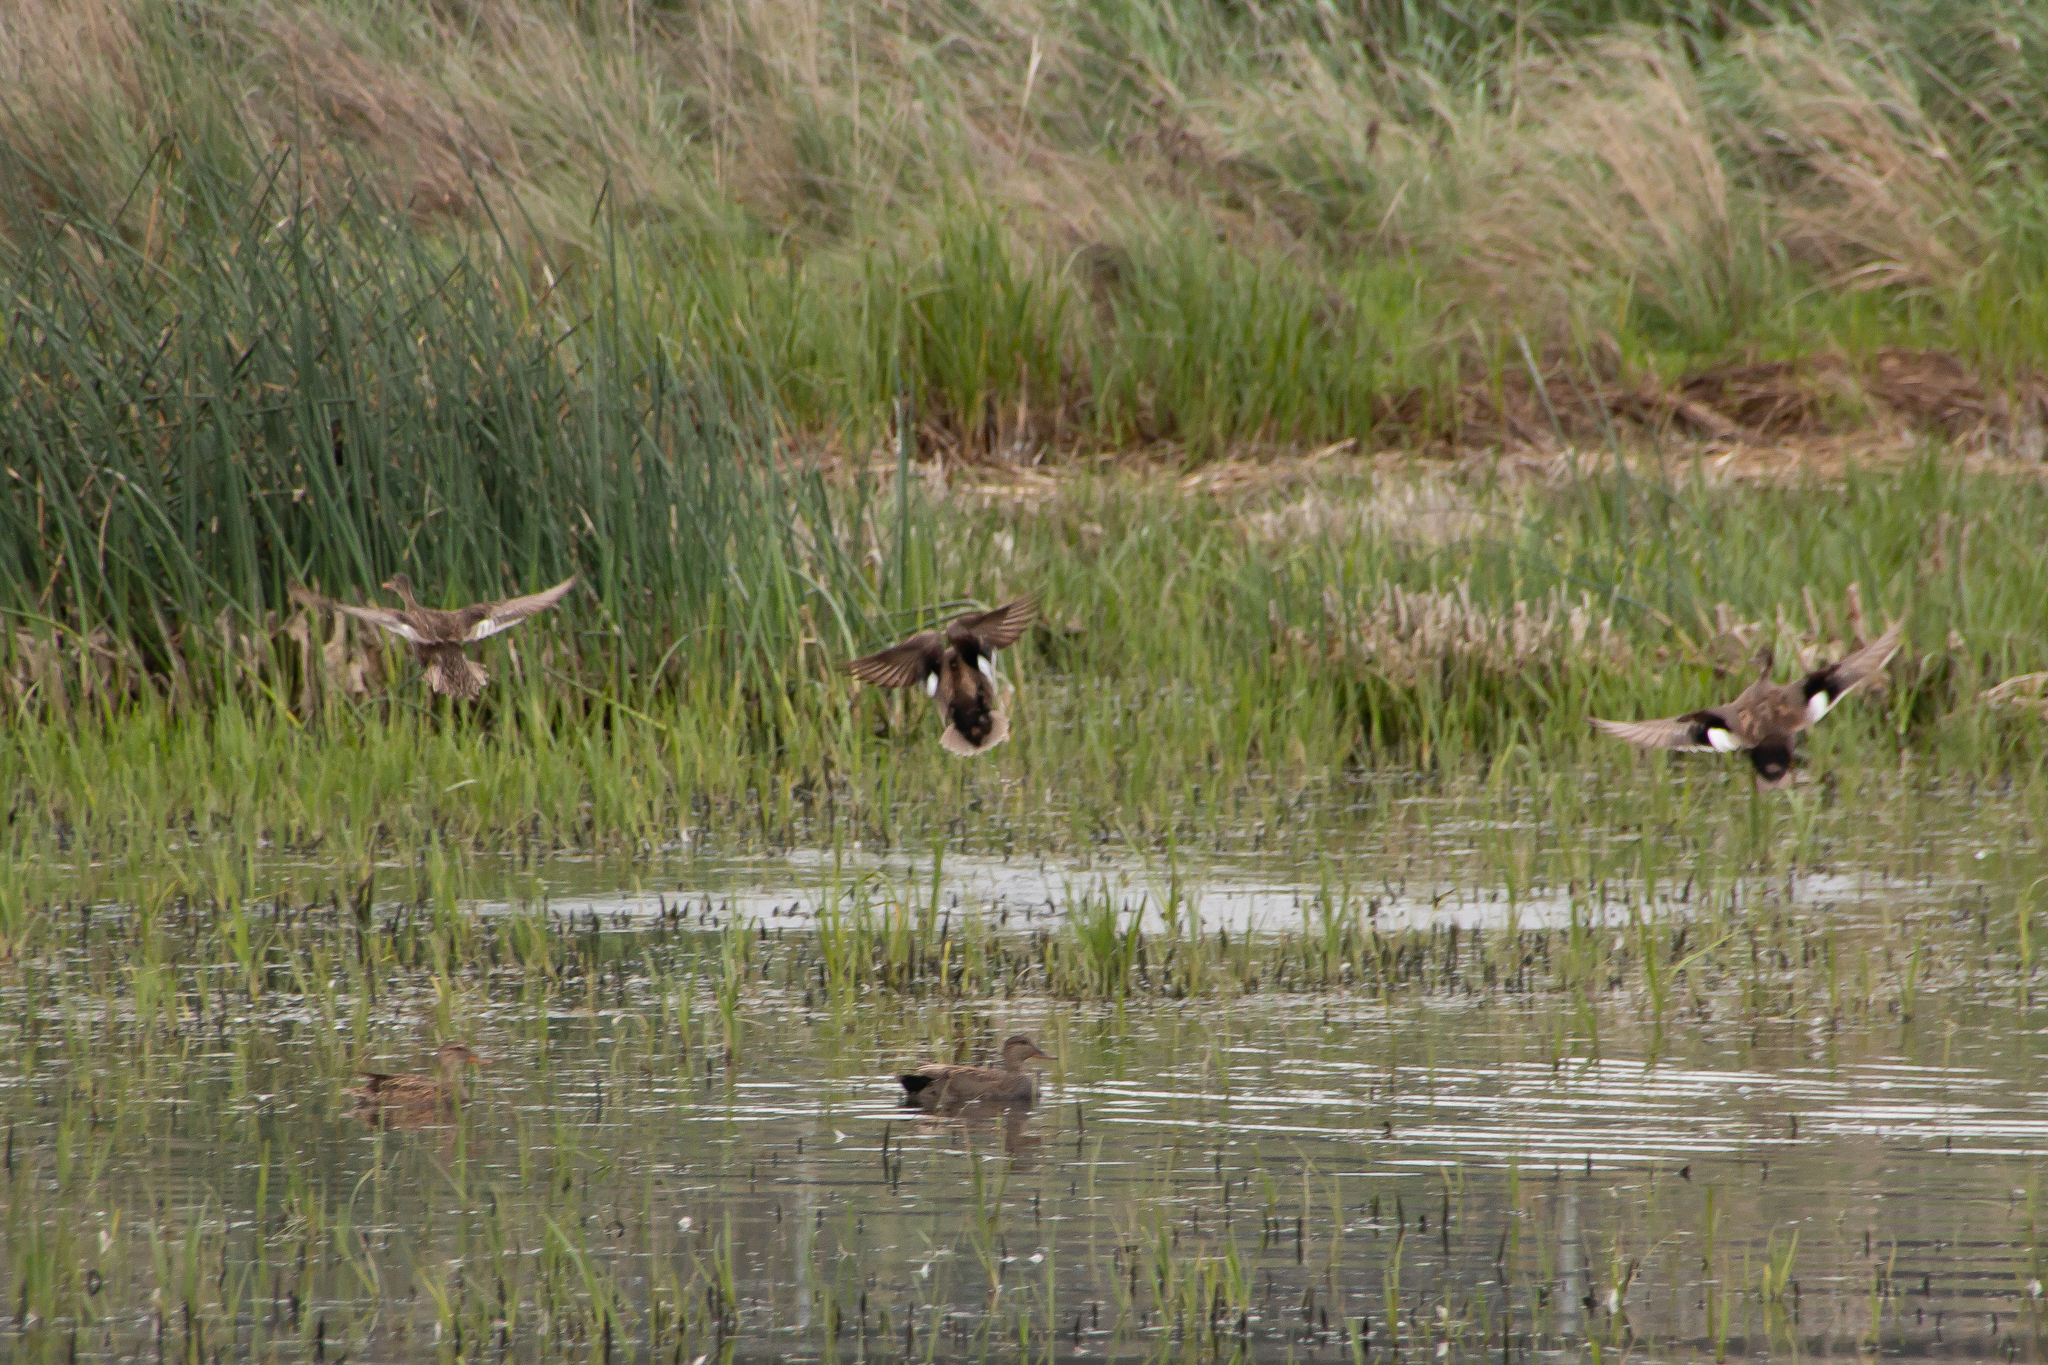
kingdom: Animalia
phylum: Chordata
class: Aves
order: Anseriformes
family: Anatidae
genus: Mareca
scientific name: Mareca strepera
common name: Gadwall
